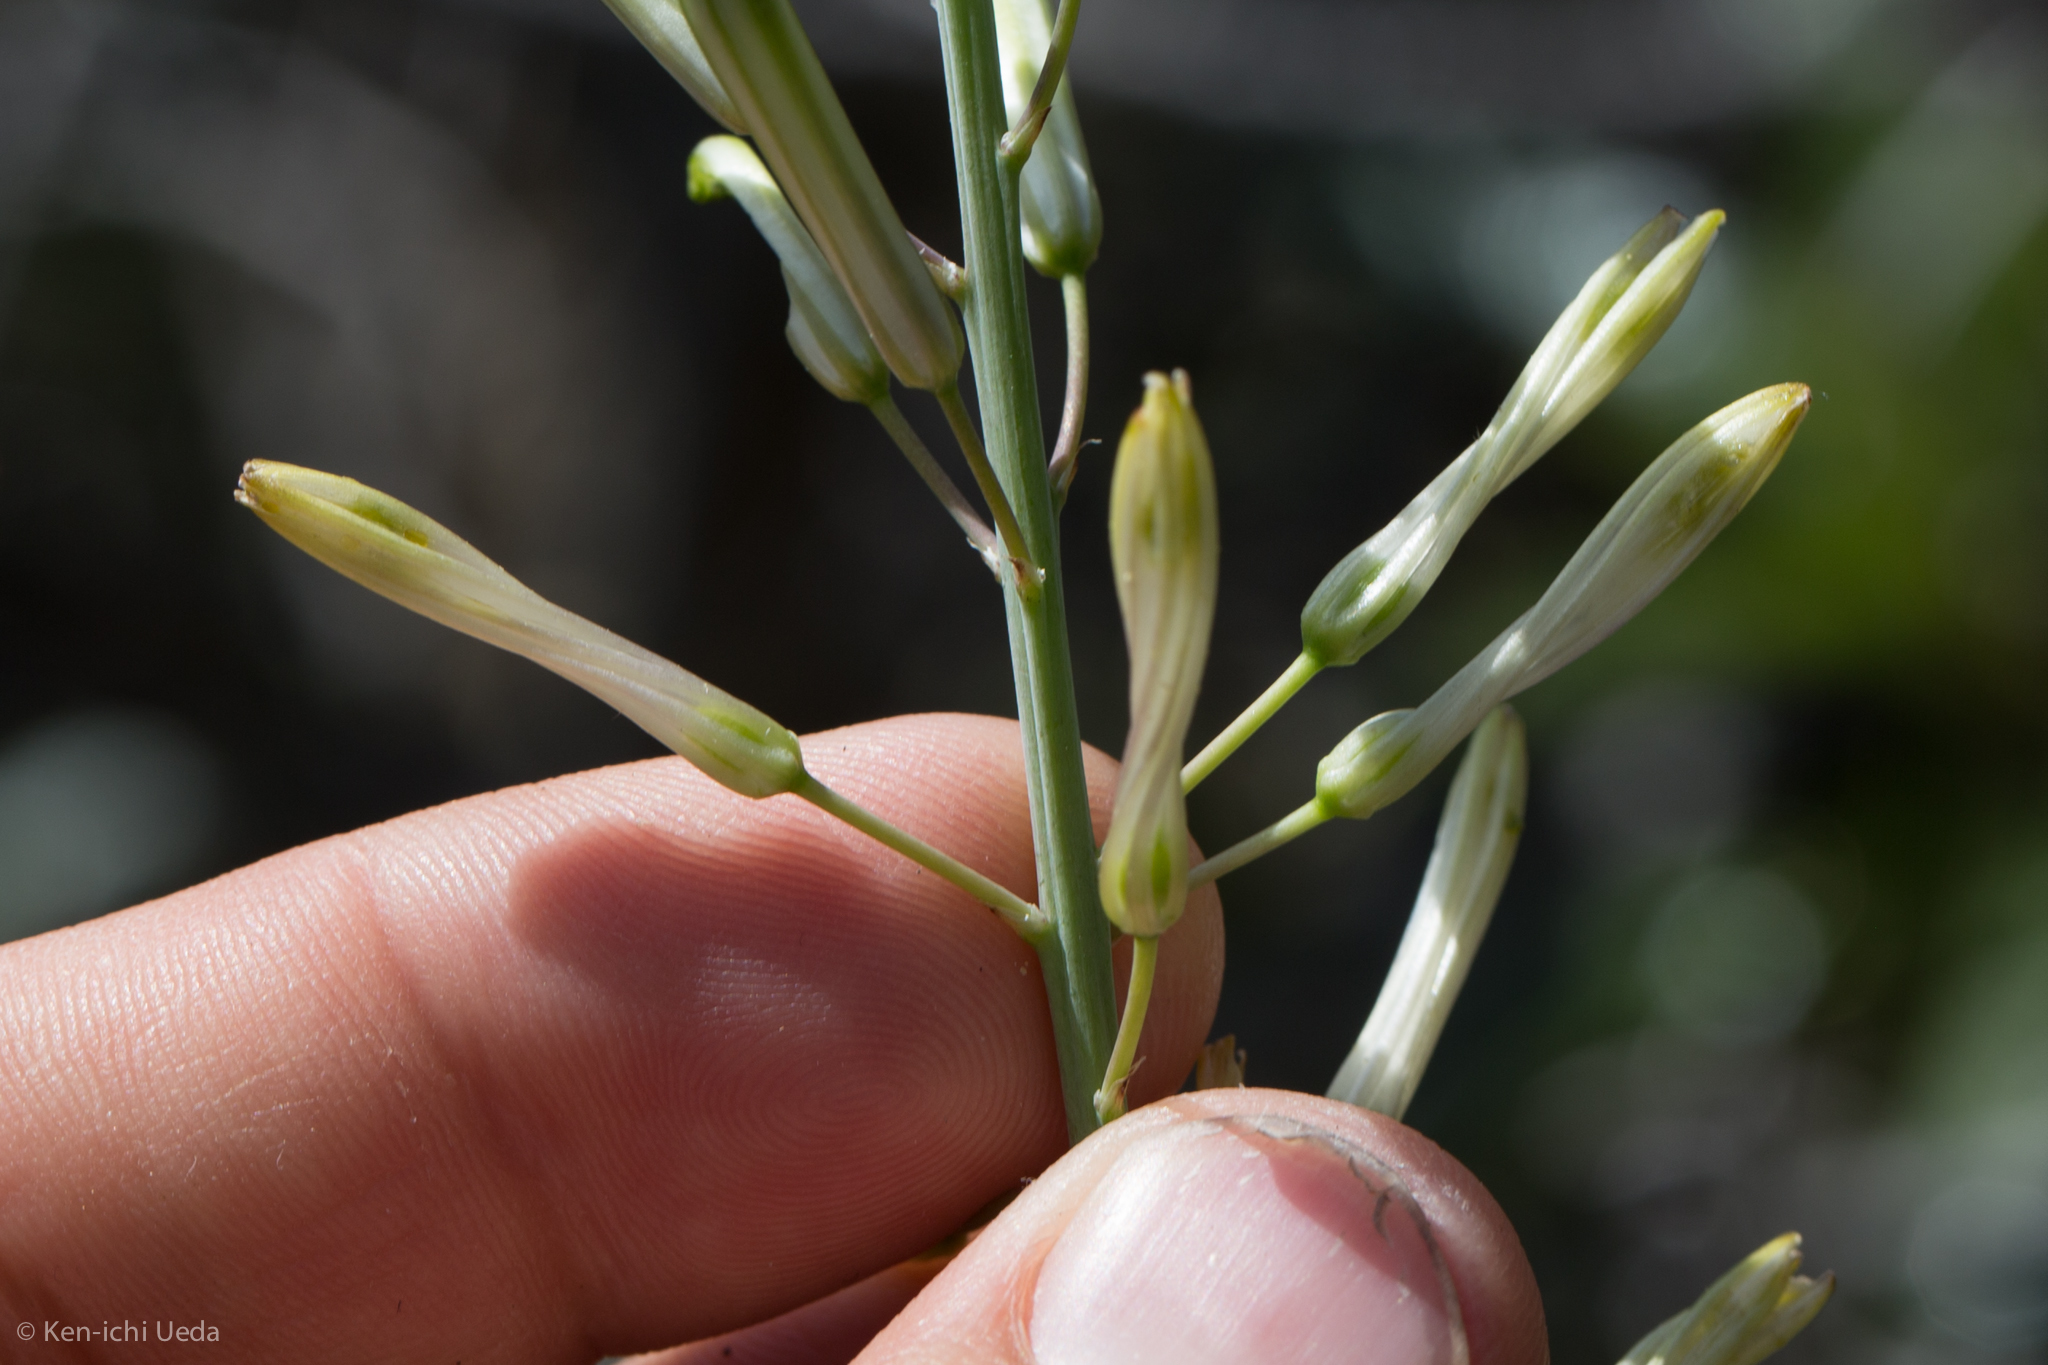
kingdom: Plantae
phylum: Tracheophyta
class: Liliopsida
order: Asparagales
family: Asparagaceae
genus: Chlorogalum
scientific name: Chlorogalum pomeridianum
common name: Amole
